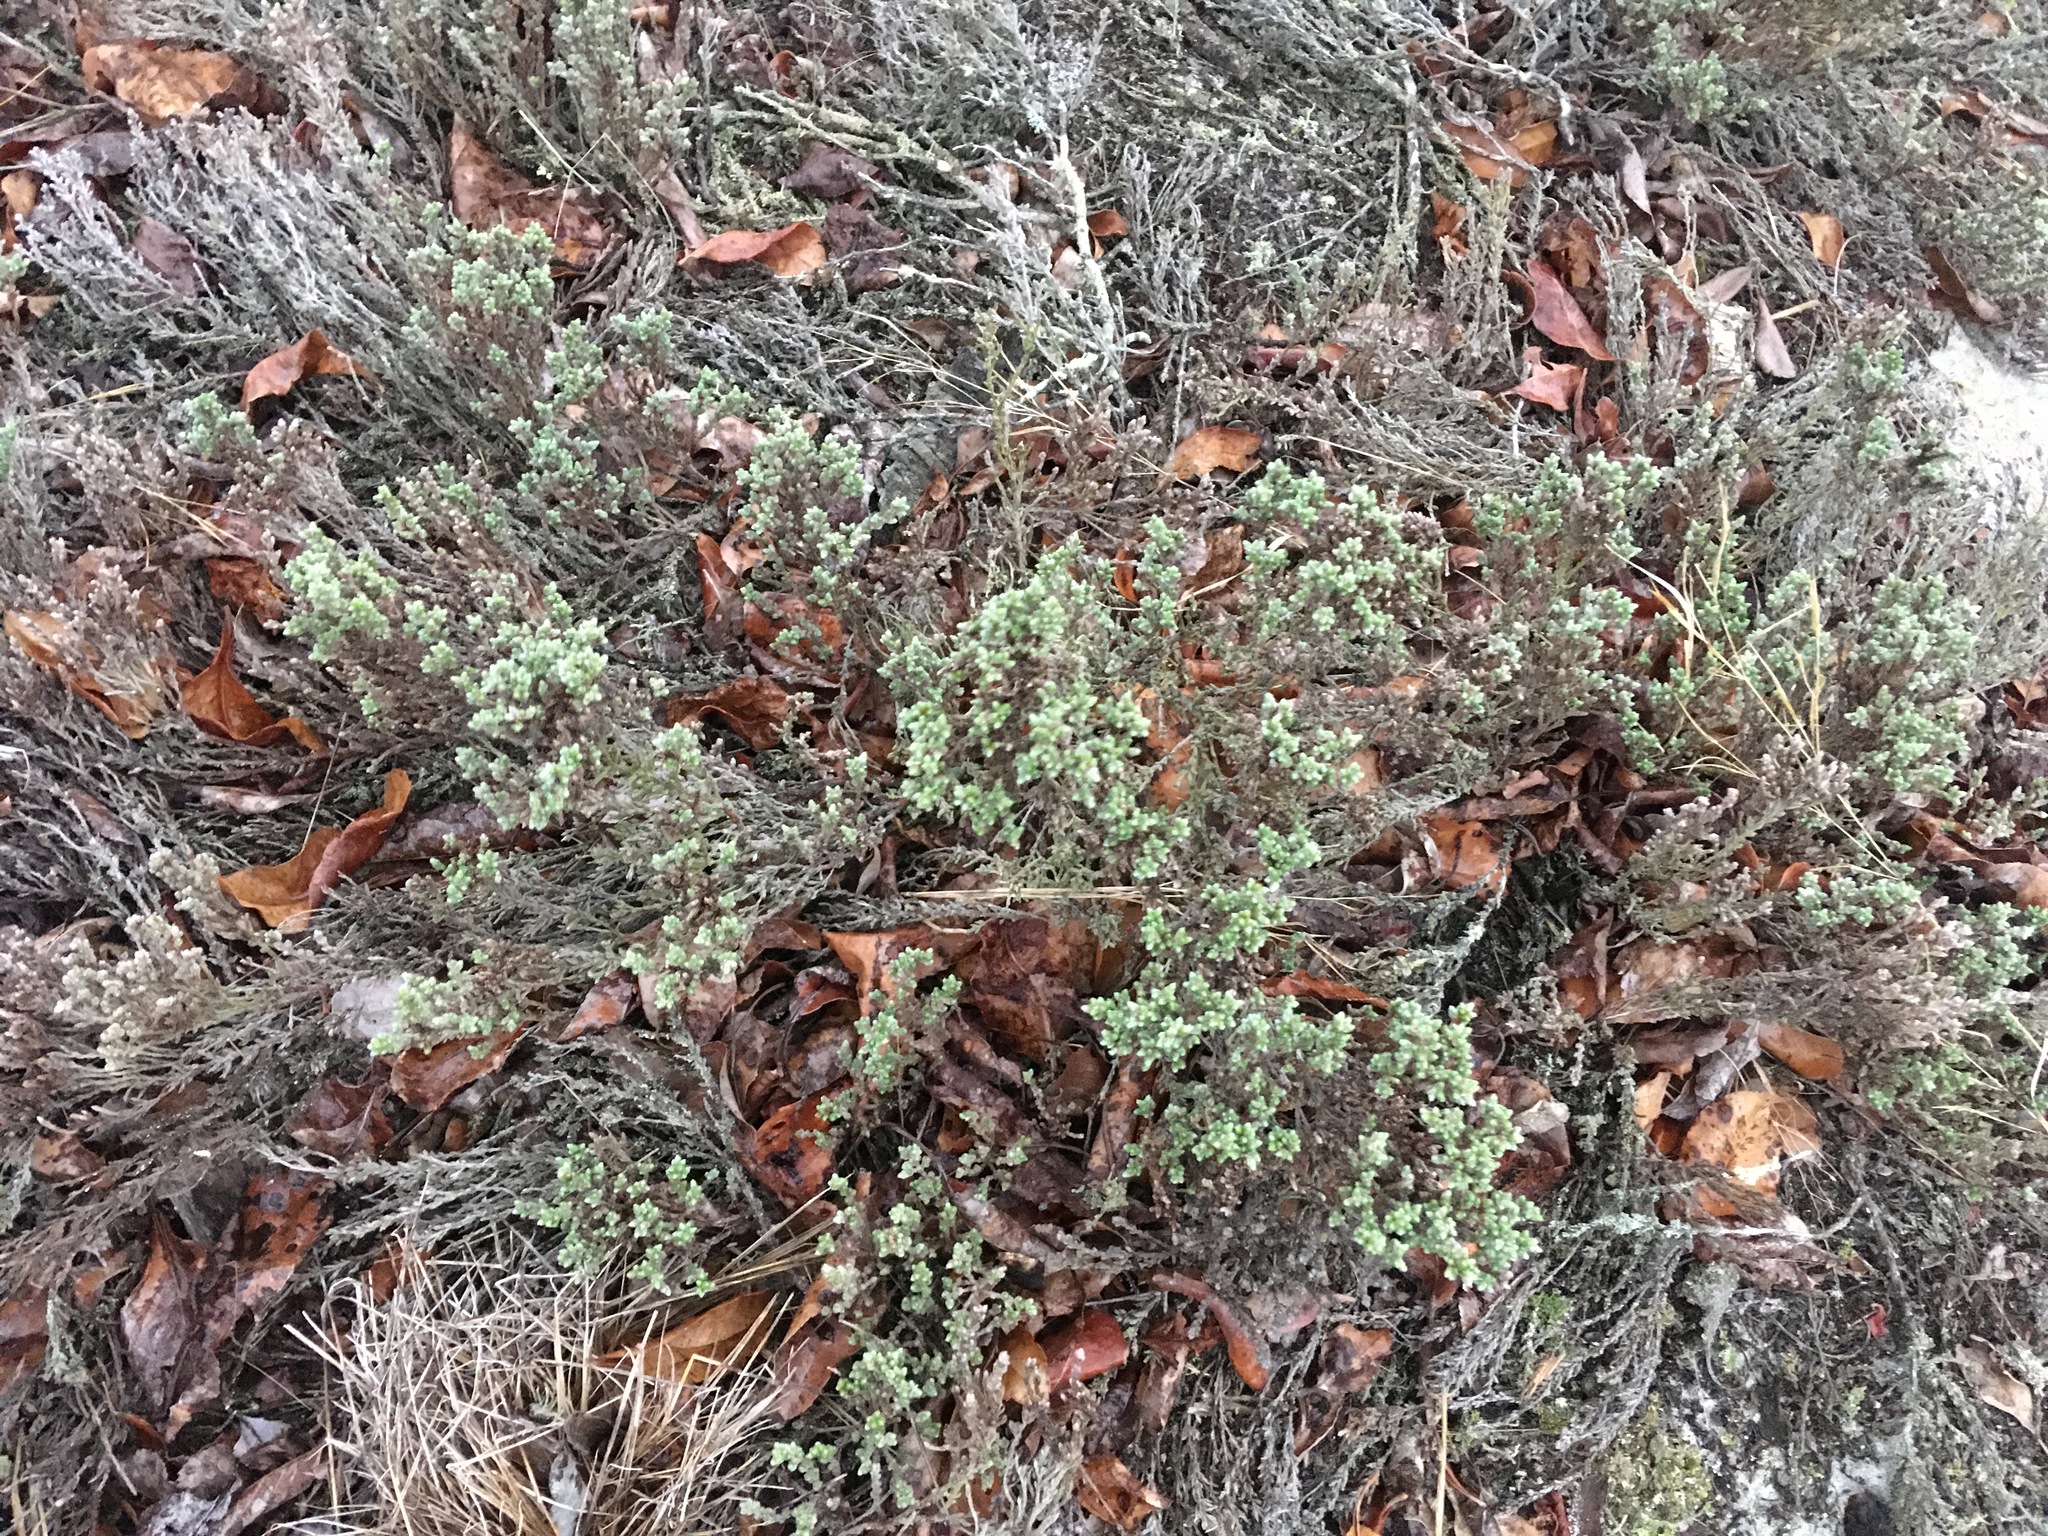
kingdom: Plantae
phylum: Tracheophyta
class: Magnoliopsida
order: Malvales
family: Cistaceae
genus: Hudsonia
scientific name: Hudsonia tomentosa
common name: Beach-heath
